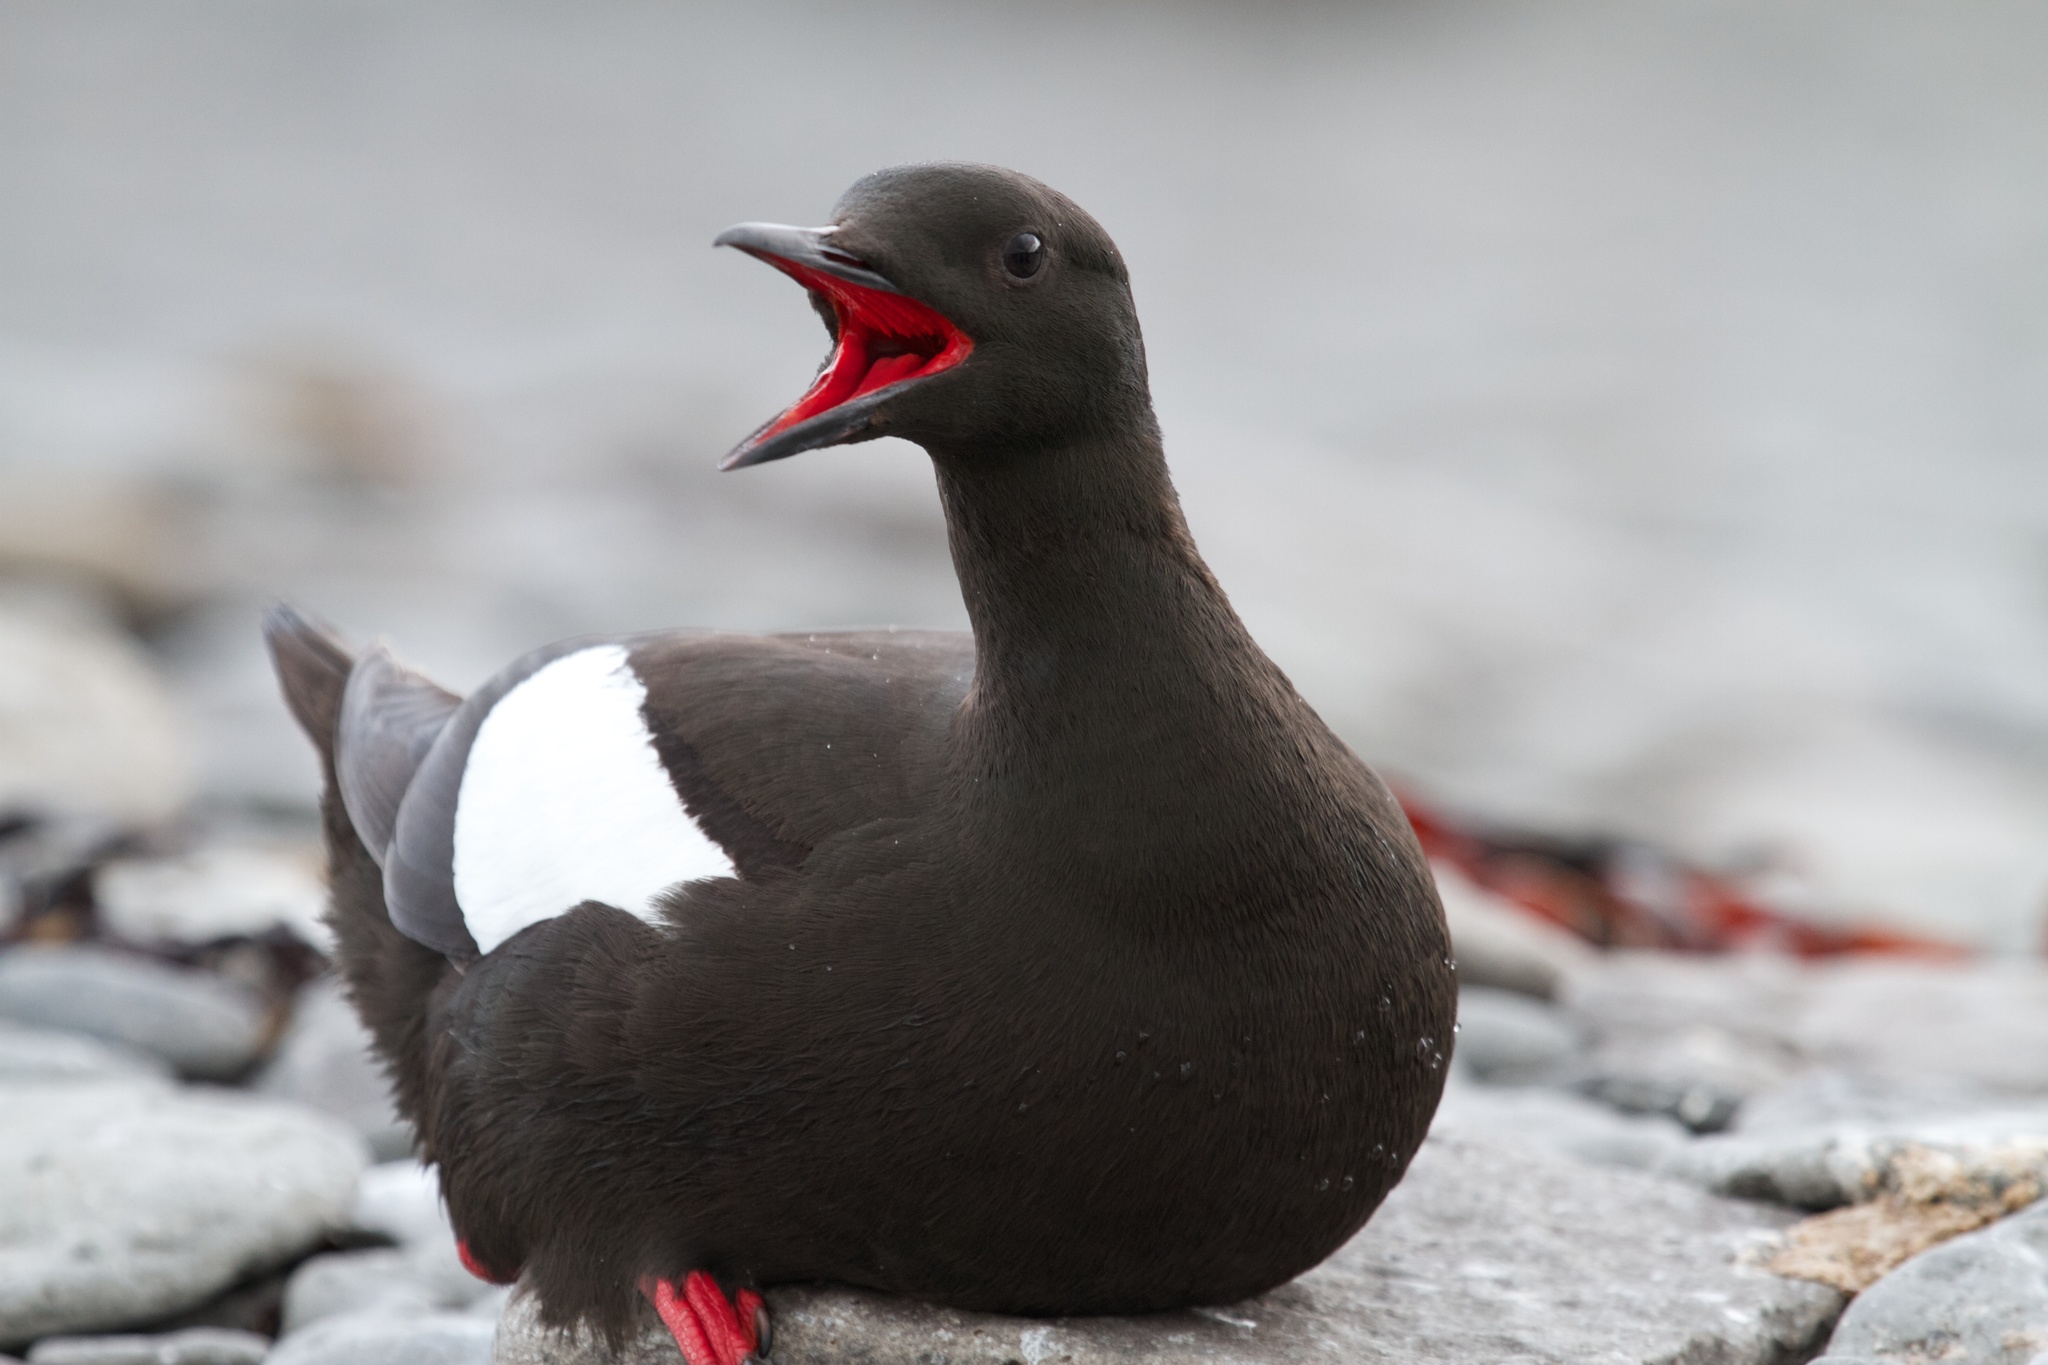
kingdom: Animalia
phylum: Chordata
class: Aves
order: Charadriiformes
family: Alcidae
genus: Cepphus
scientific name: Cepphus grylle
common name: Black guillemot
